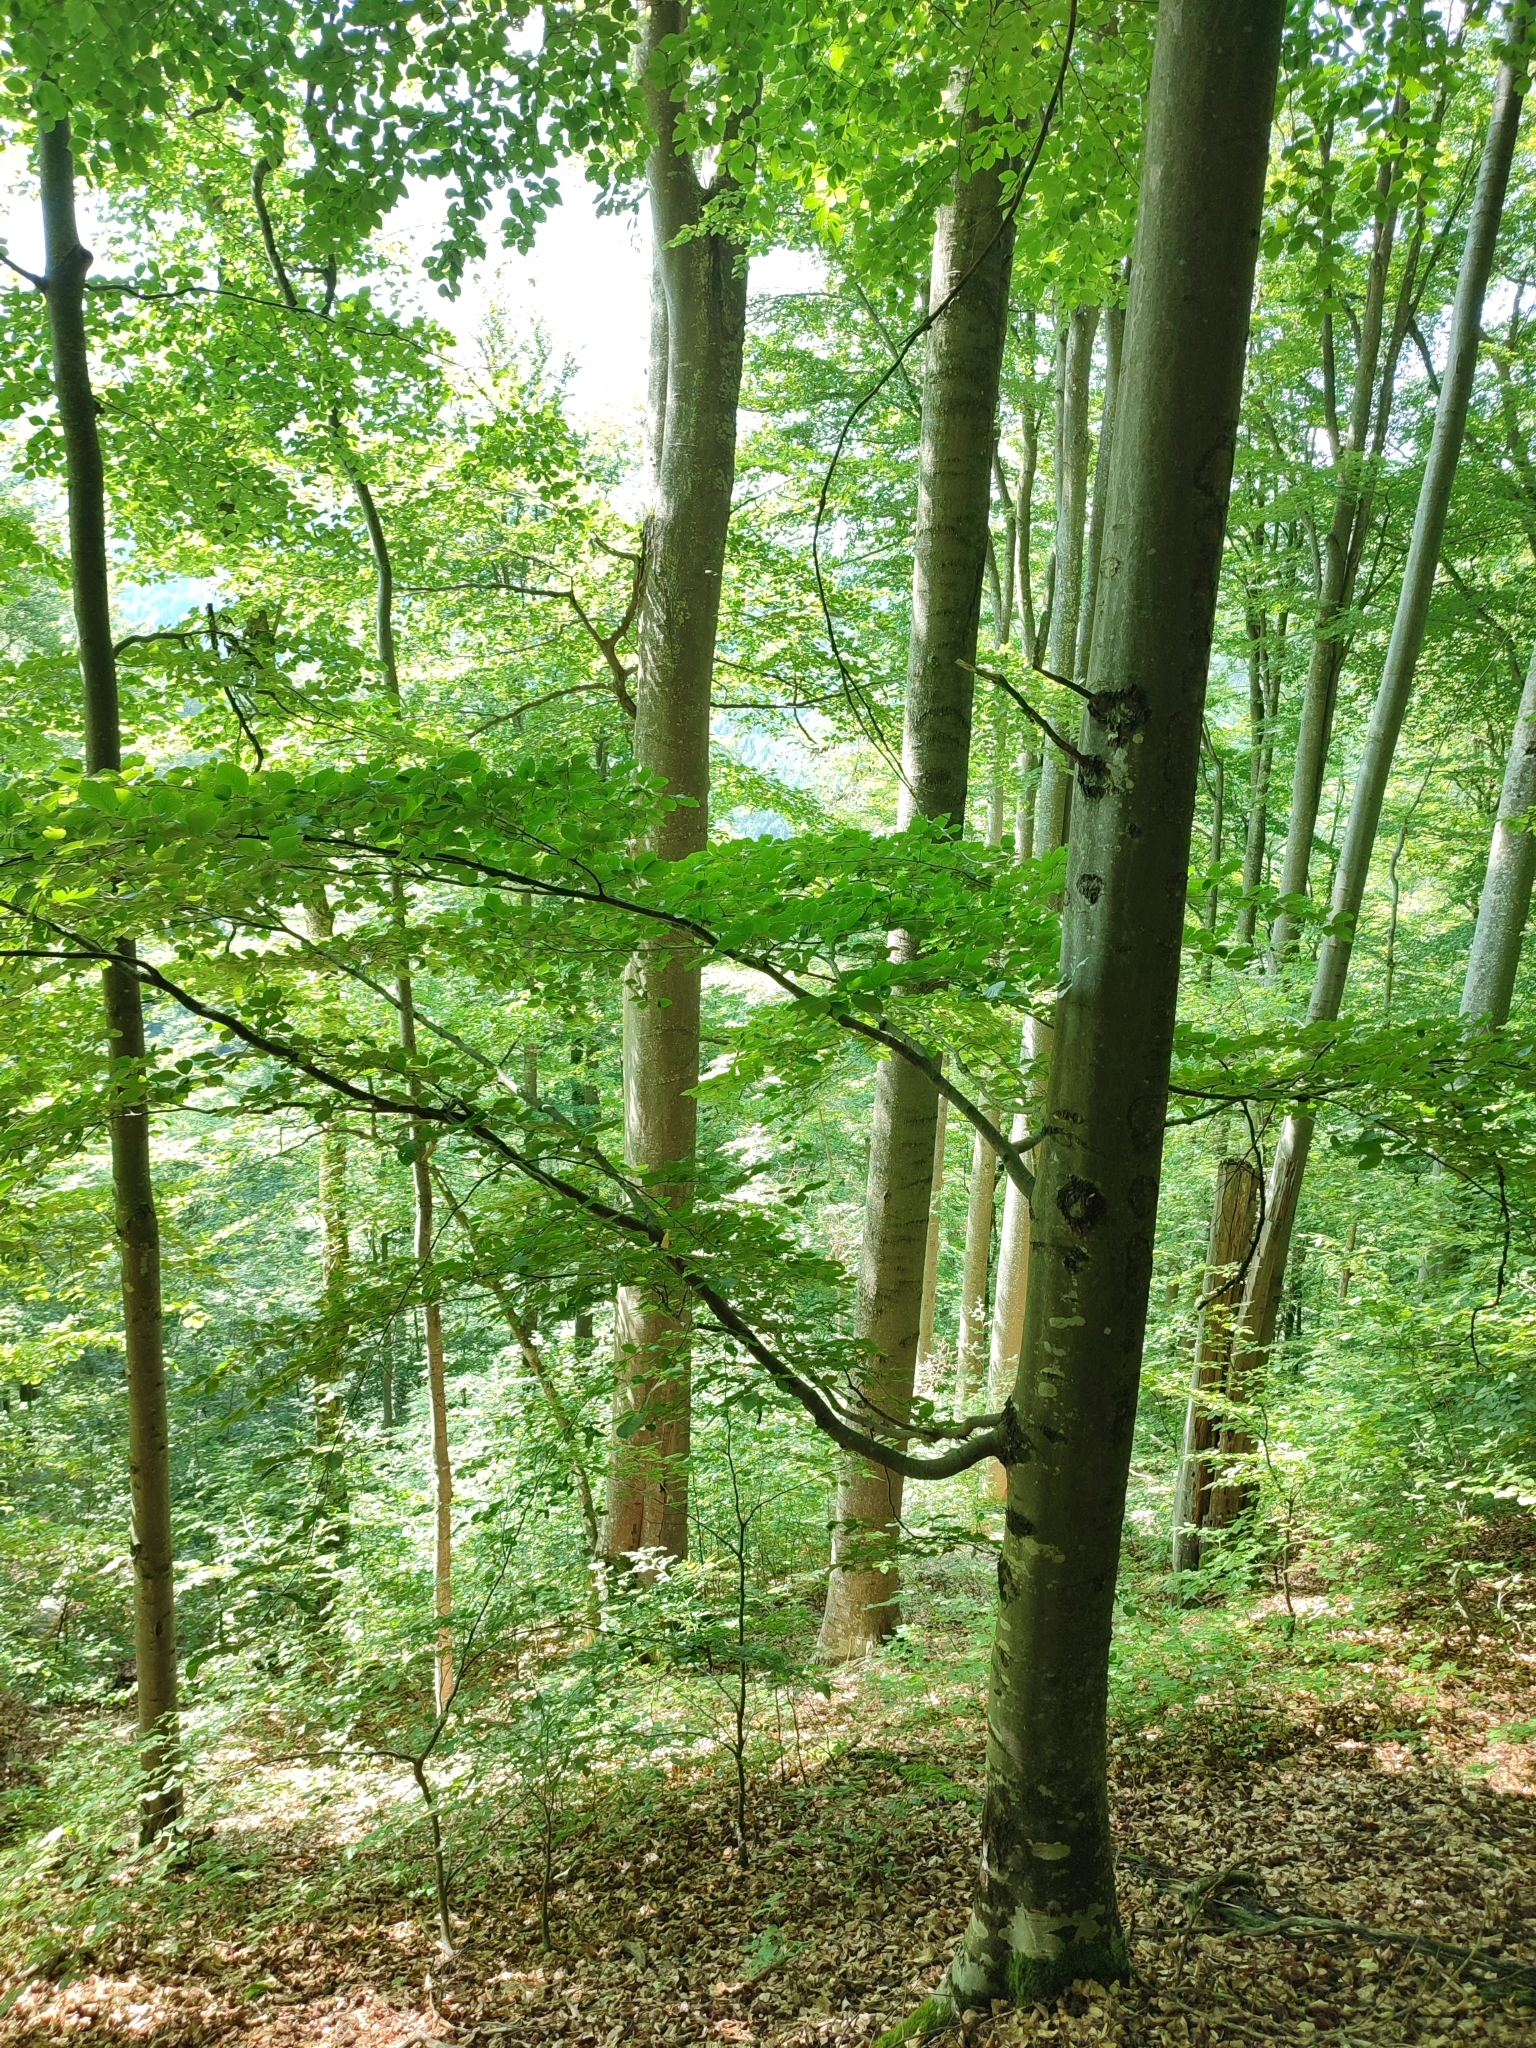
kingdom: Plantae
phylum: Tracheophyta
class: Magnoliopsida
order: Fagales
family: Fagaceae
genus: Fagus
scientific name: Fagus sylvatica
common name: Beech
